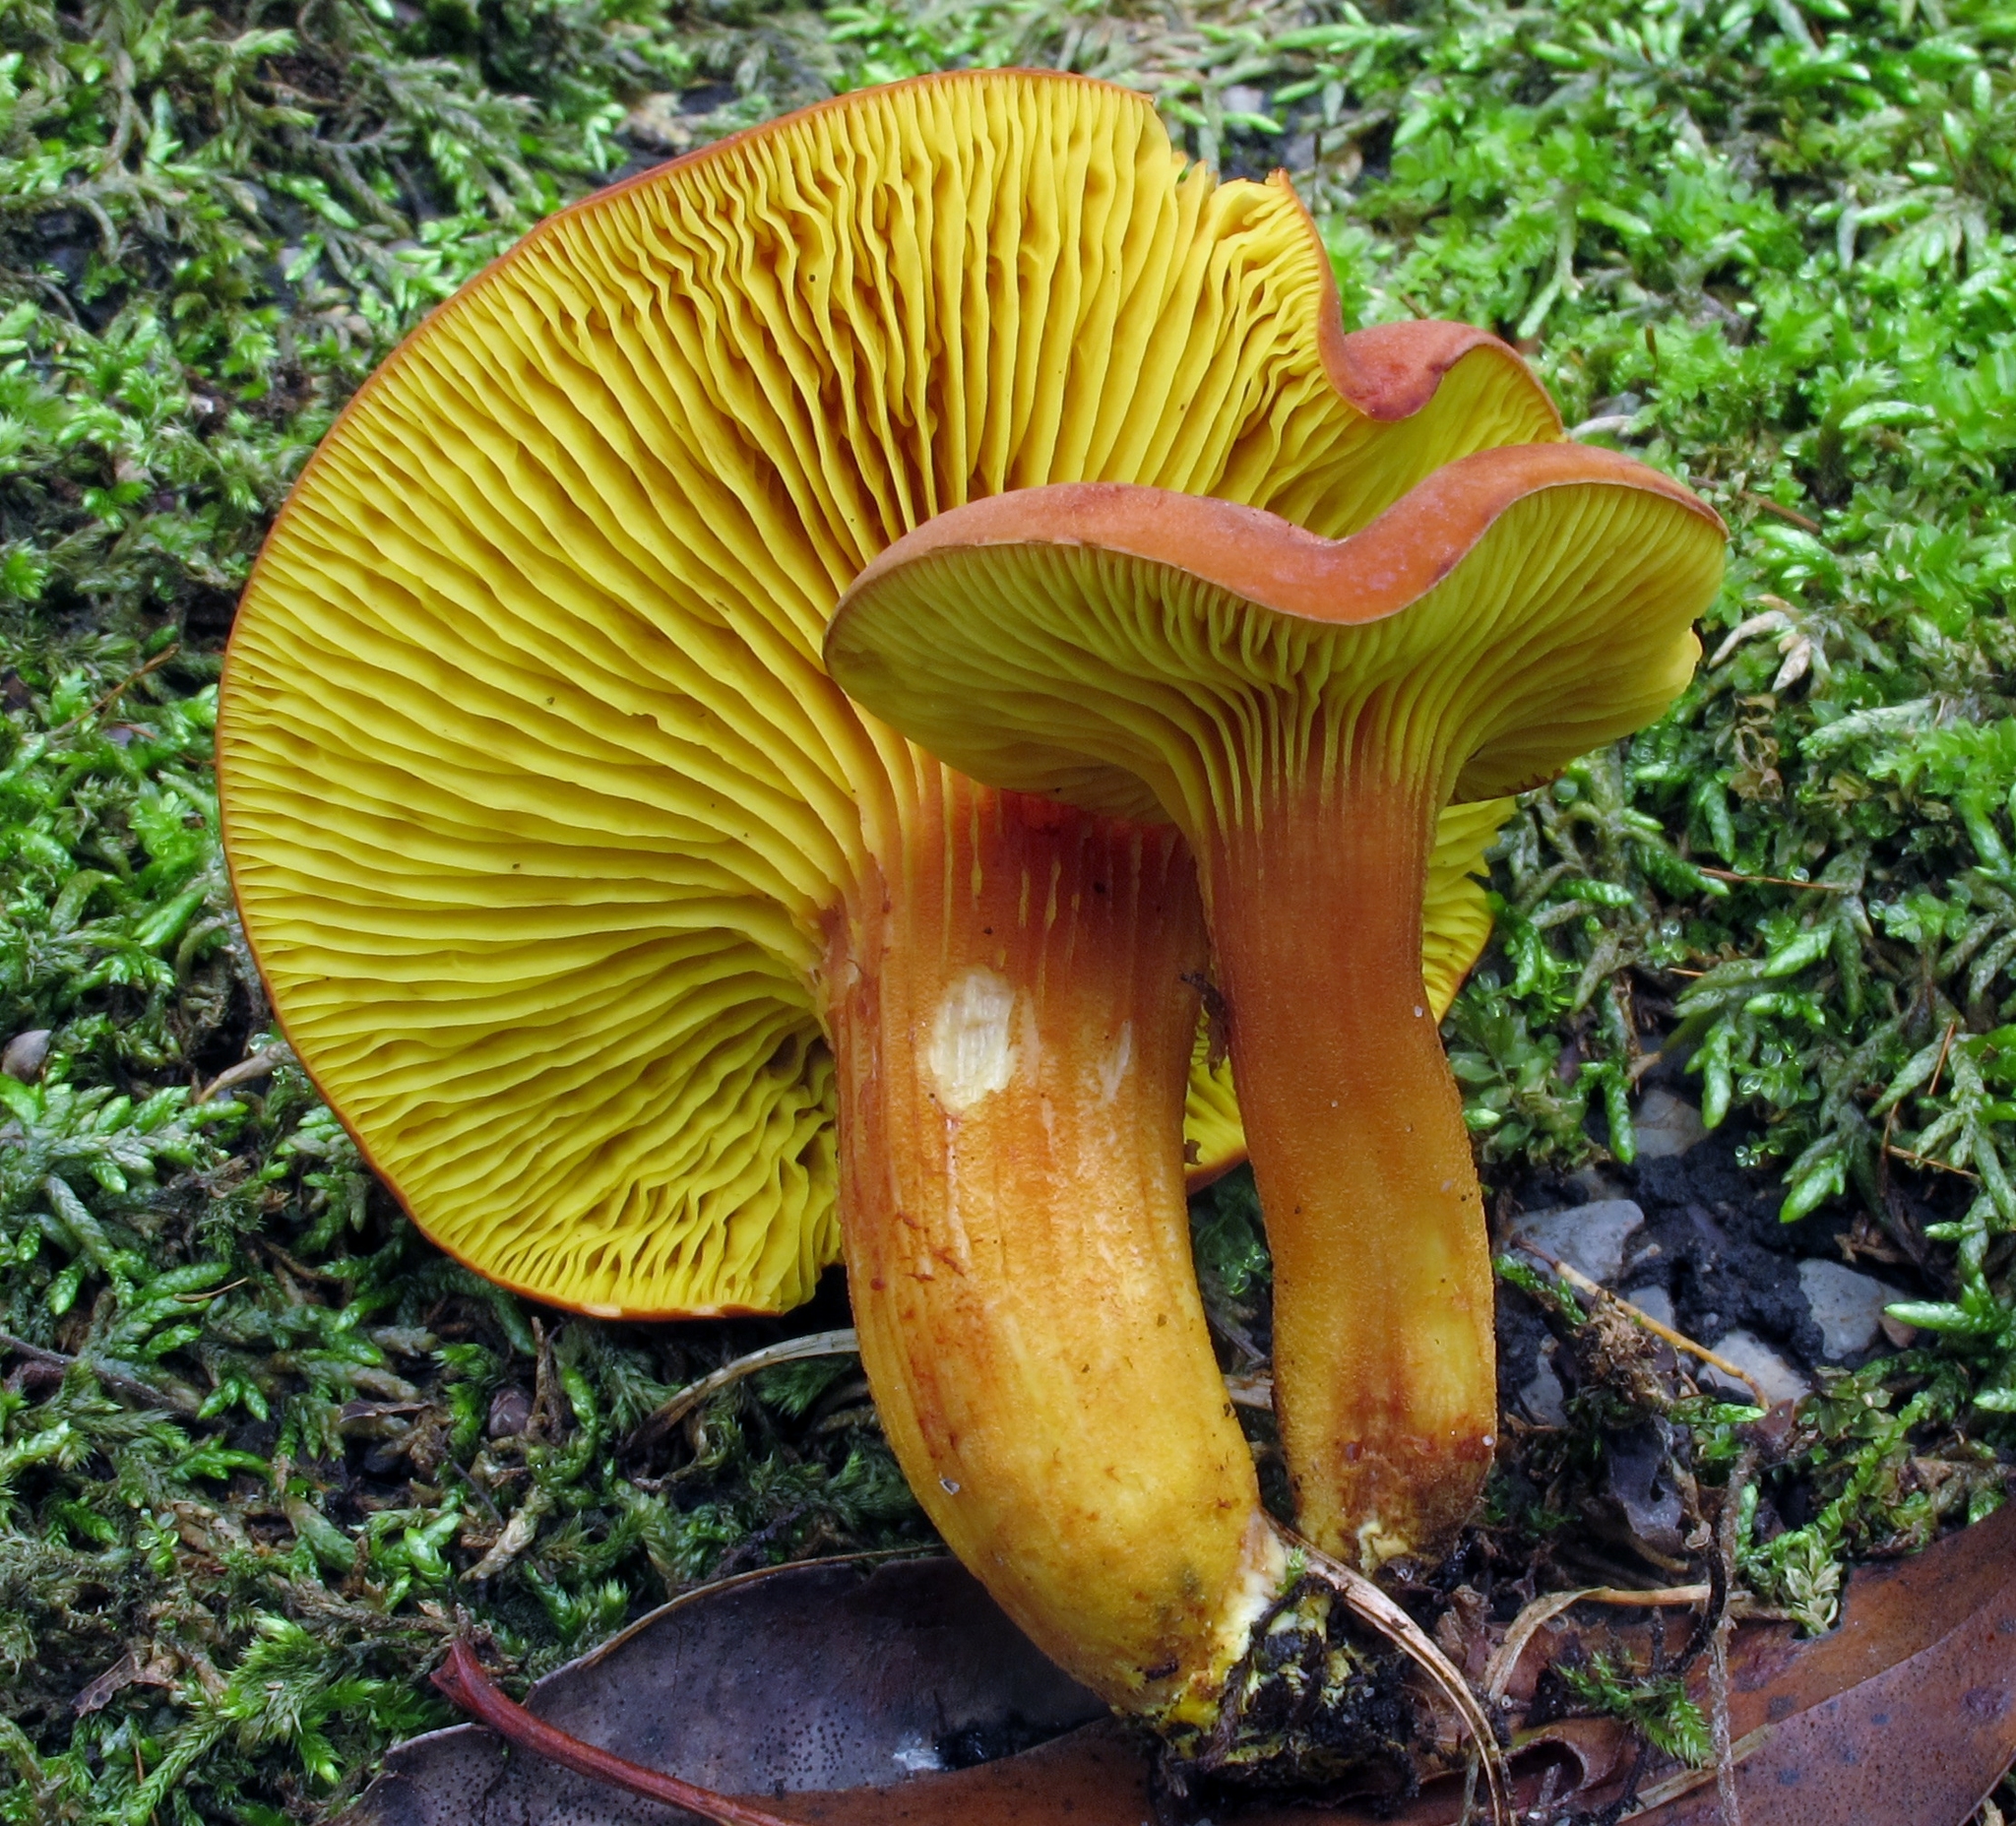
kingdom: Fungi
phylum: Basidiomycota
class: Agaricomycetes
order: Boletales
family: Boletaceae
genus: Phylloporus
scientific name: Phylloporus leucomycelinus
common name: Gilled bolete
